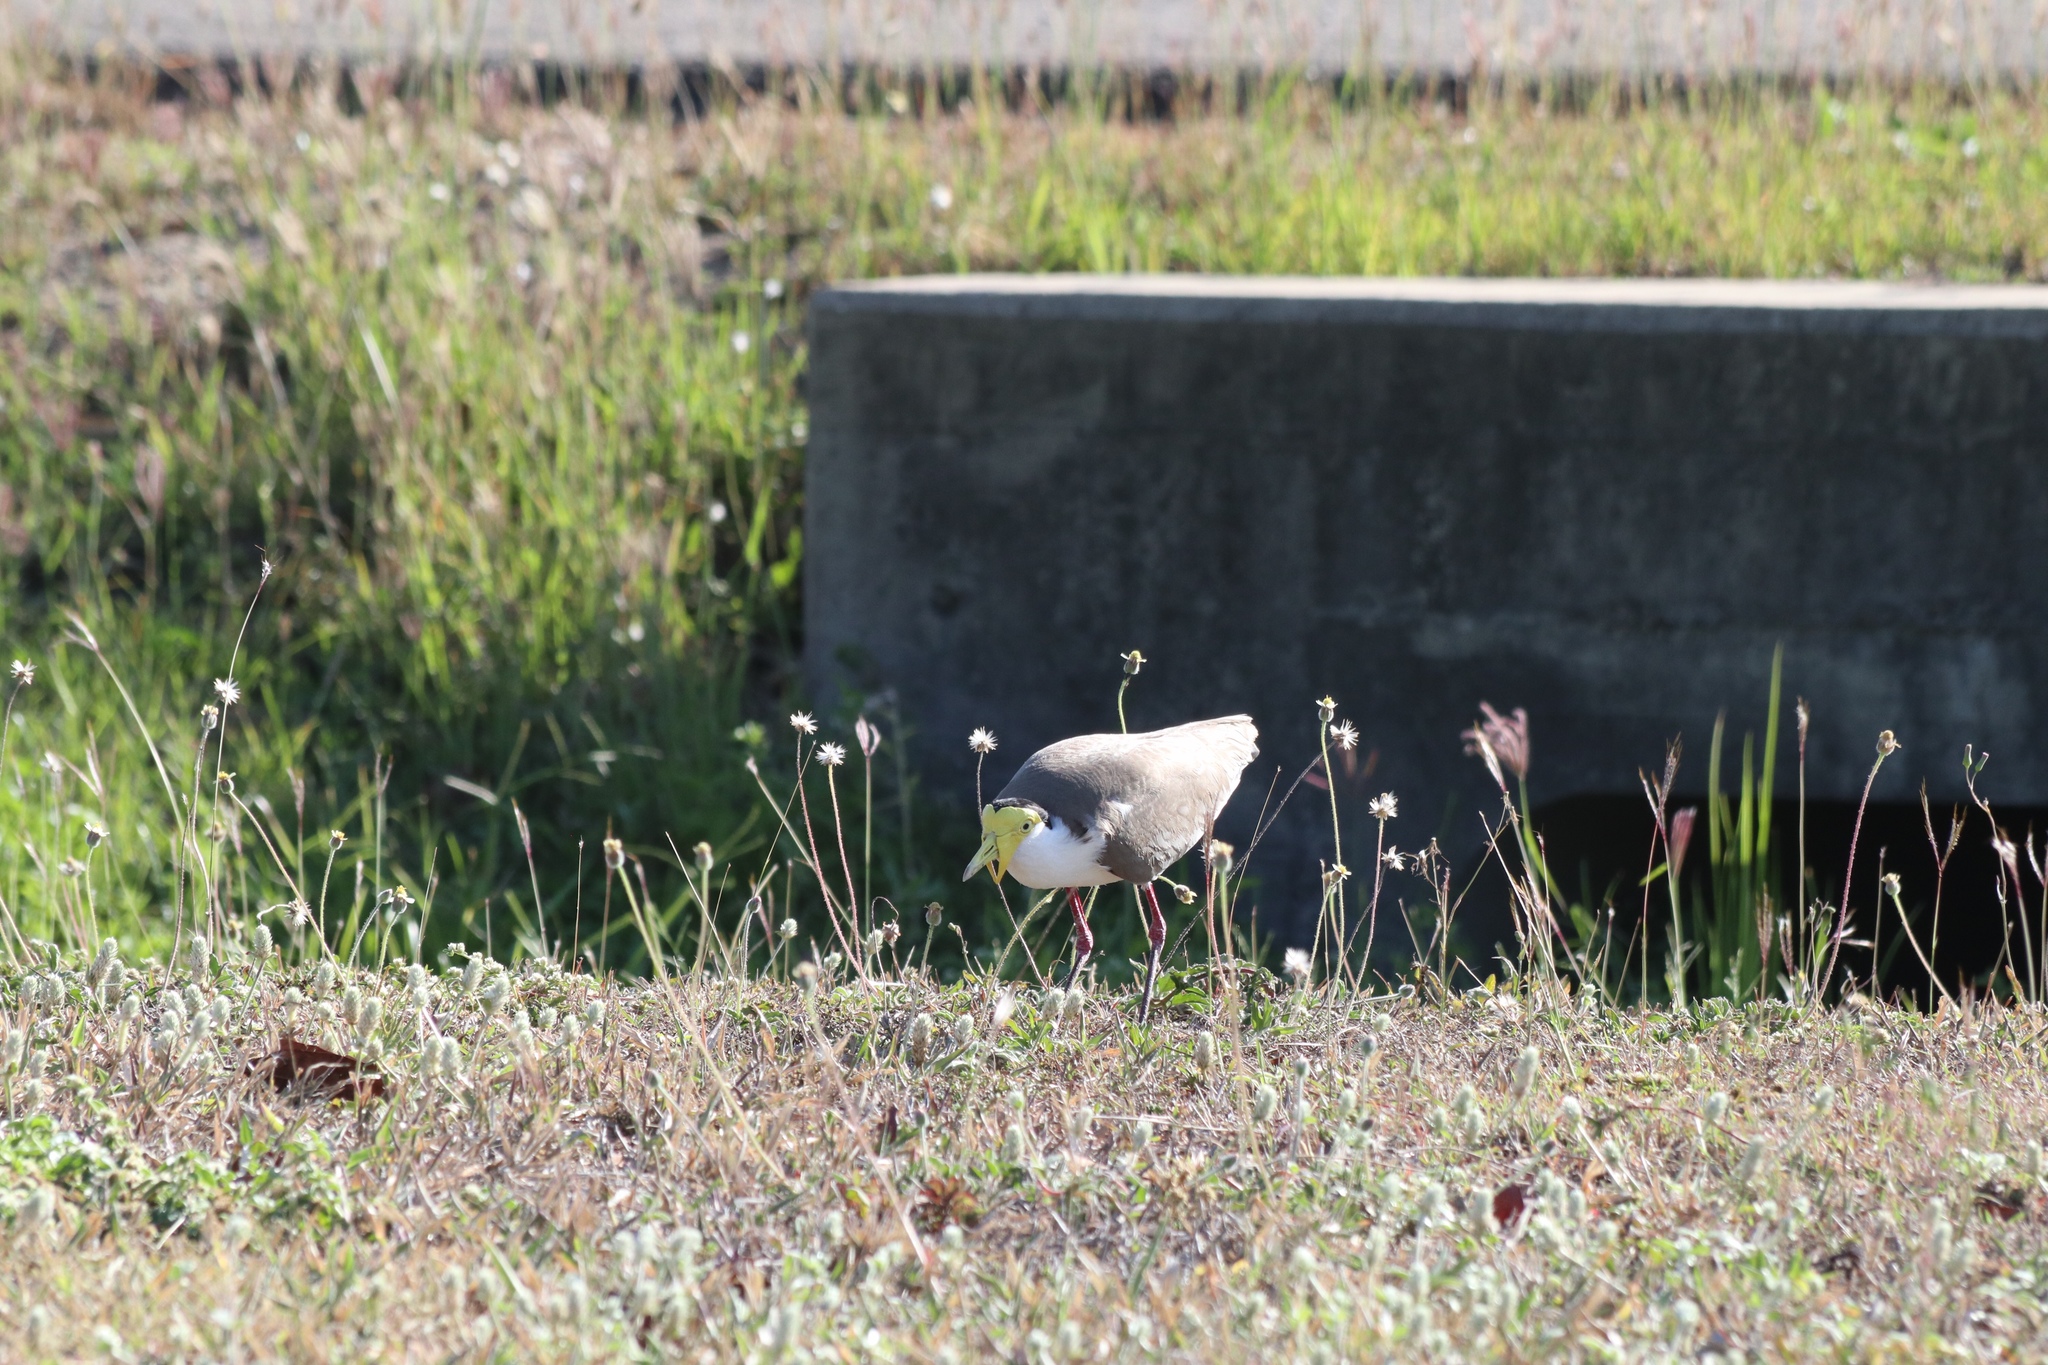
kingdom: Animalia
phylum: Chordata
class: Aves
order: Charadriiformes
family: Charadriidae
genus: Vanellus
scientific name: Vanellus miles
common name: Masked lapwing
